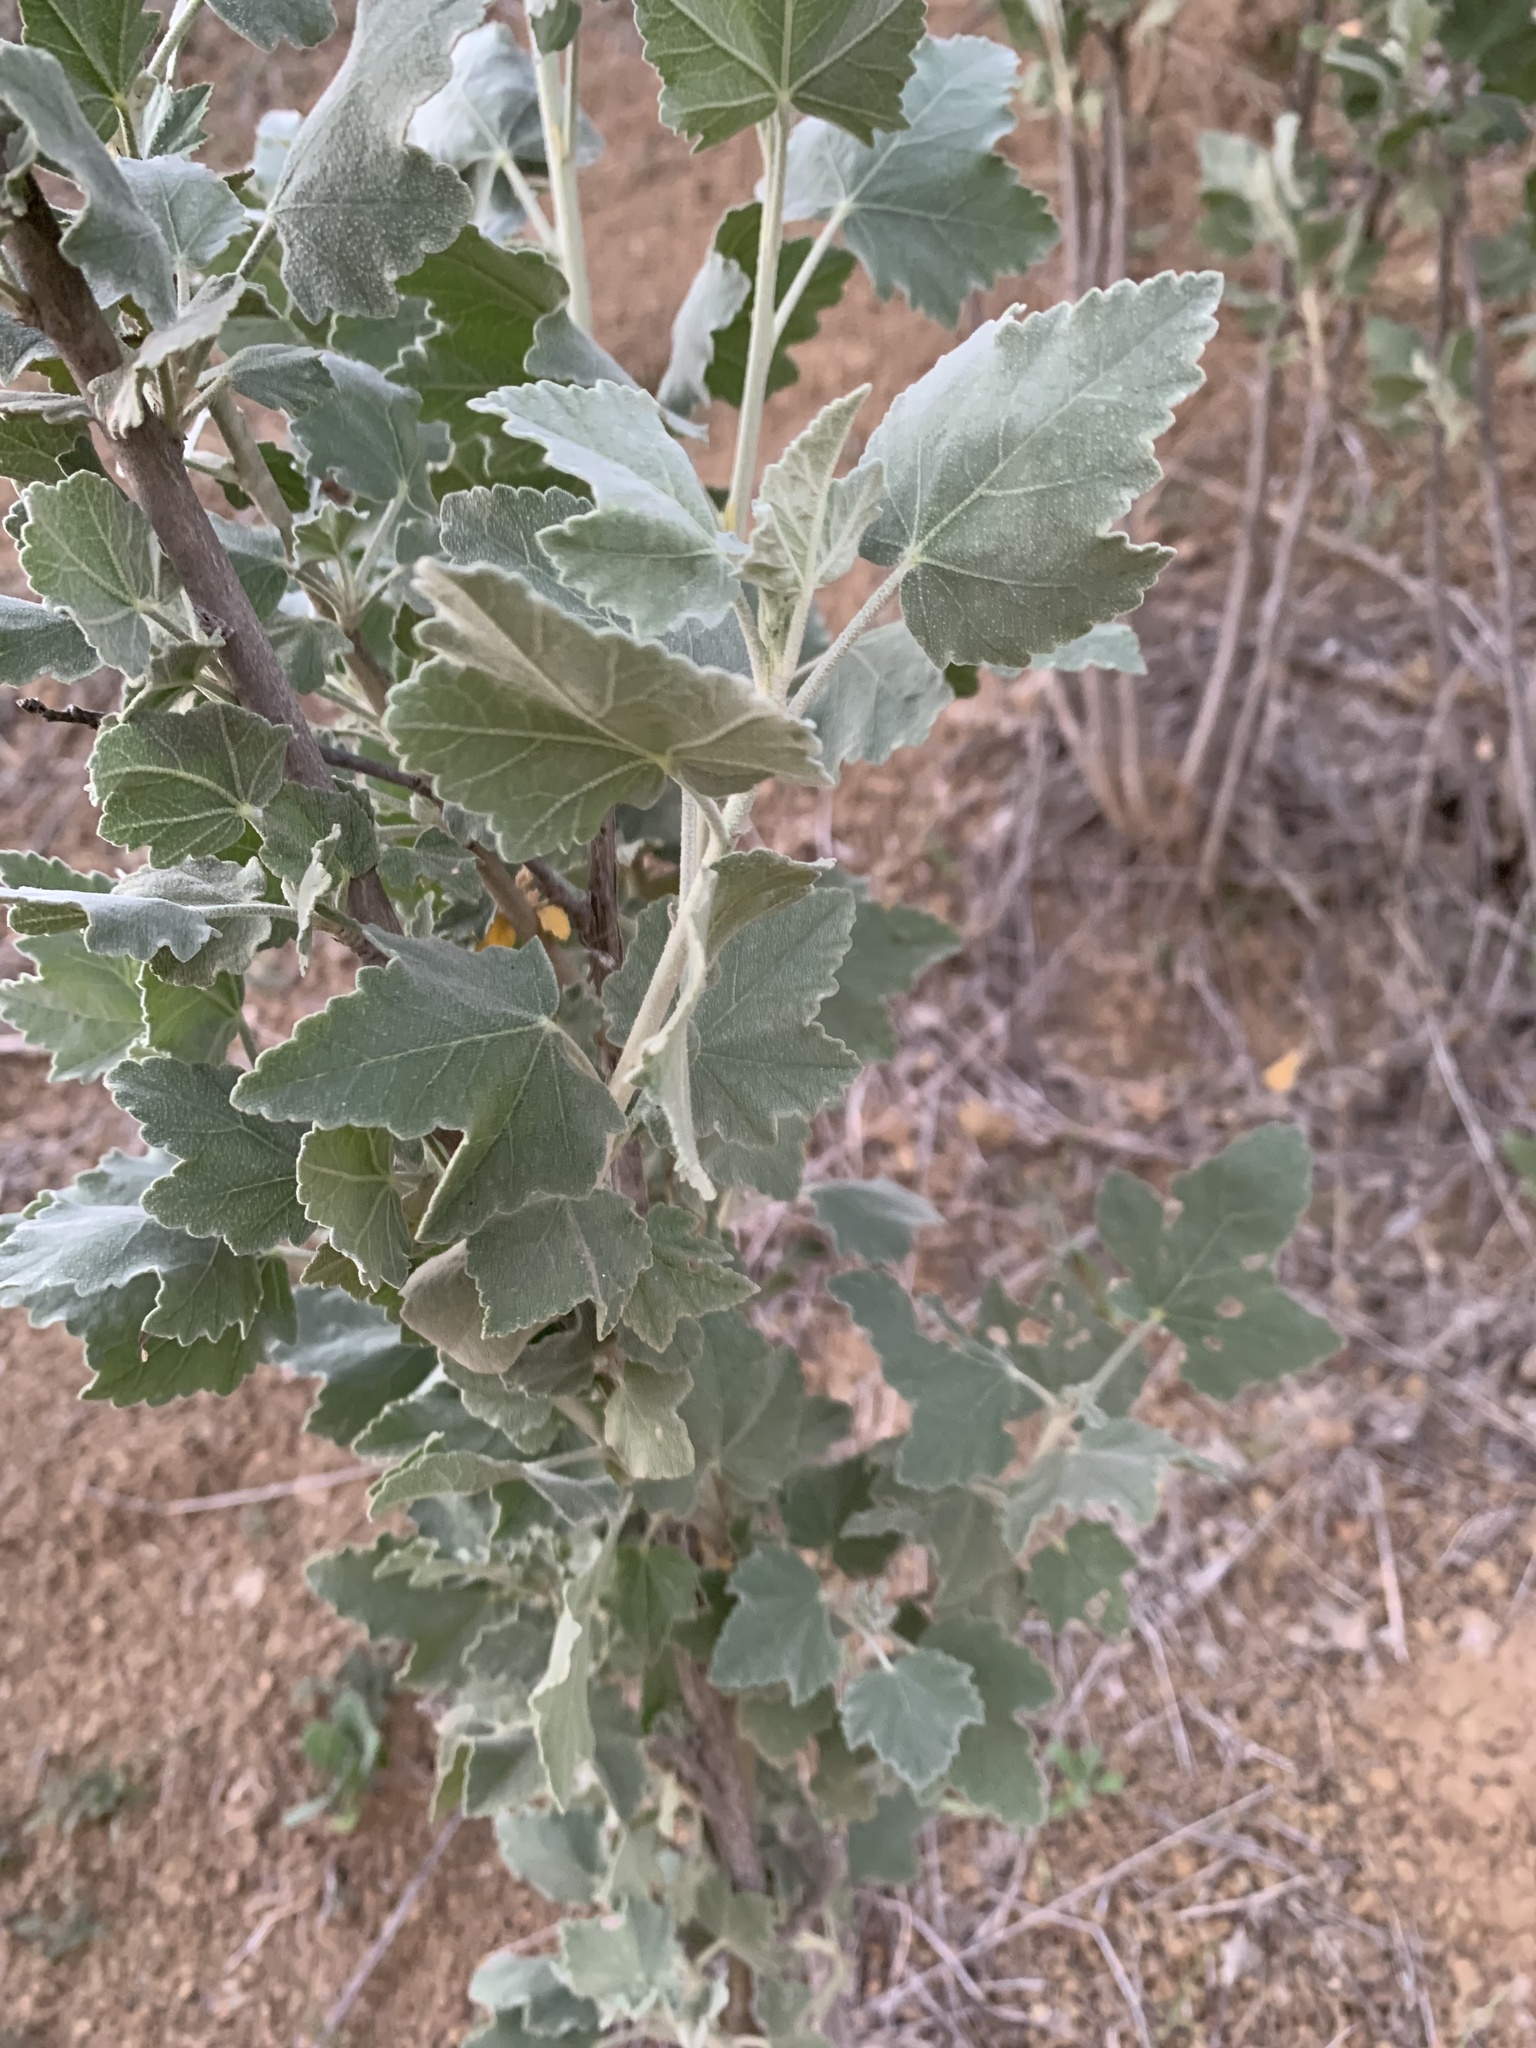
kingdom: Plantae
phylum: Tracheophyta
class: Magnoliopsida
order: Malvales
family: Malvaceae
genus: Malacothamnus
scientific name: Malacothamnus fasciculatus
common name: Sant cruz island bush-mallow
